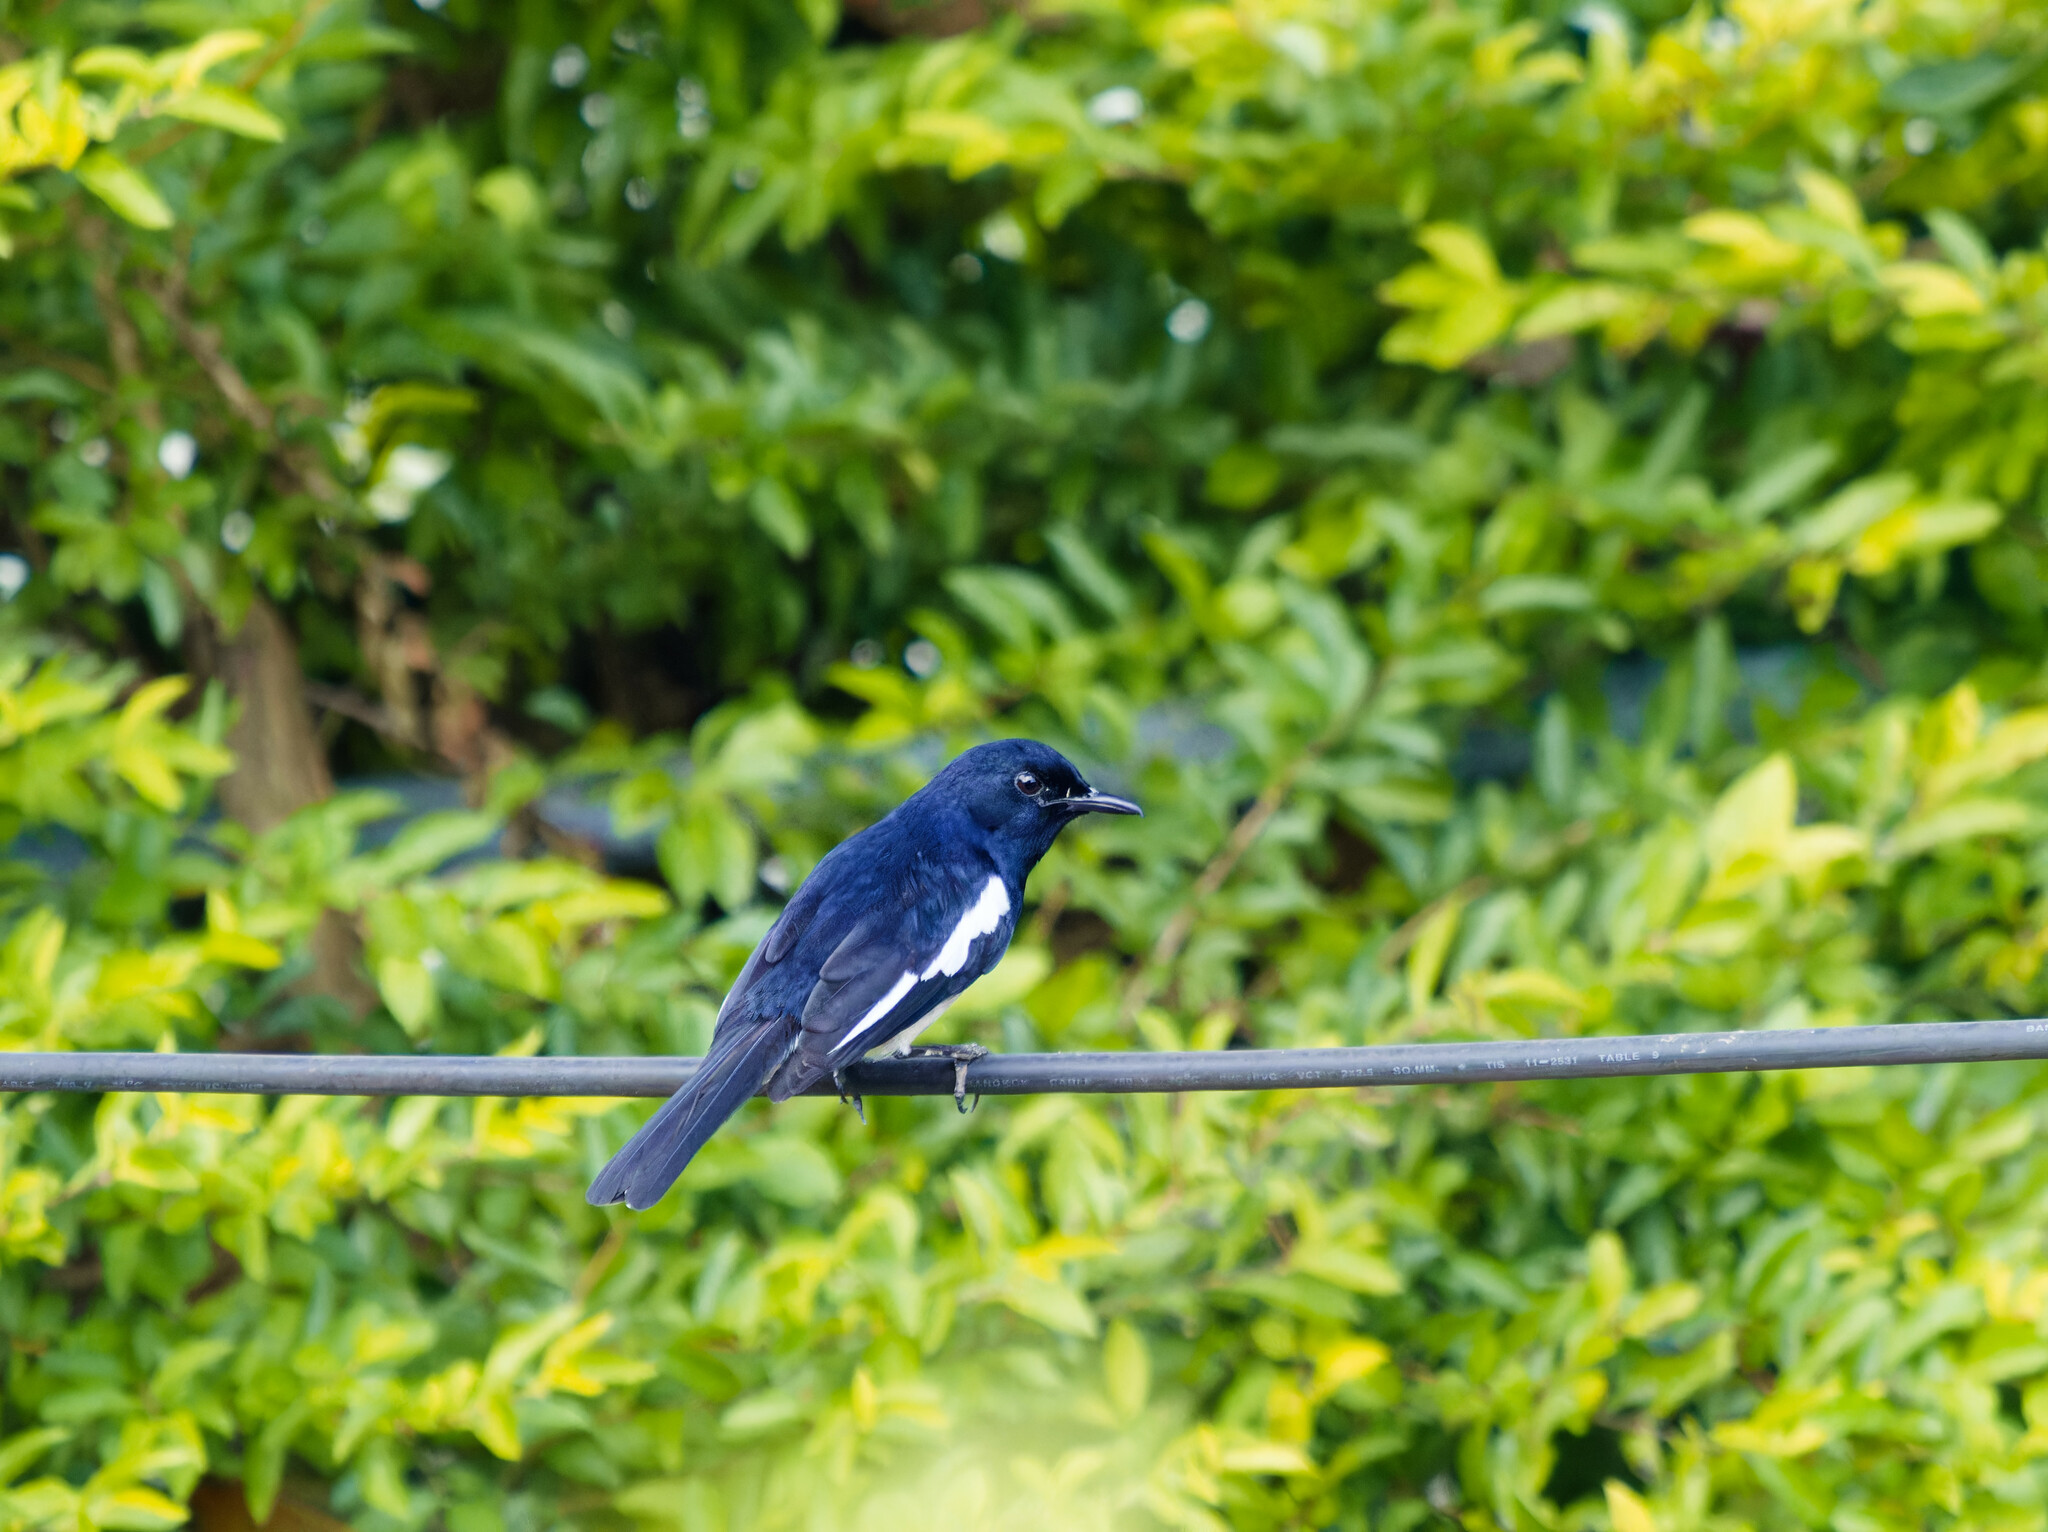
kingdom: Animalia
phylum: Chordata
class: Aves
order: Passeriformes
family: Muscicapidae
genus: Copsychus
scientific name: Copsychus saularis
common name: Oriental magpie-robin
